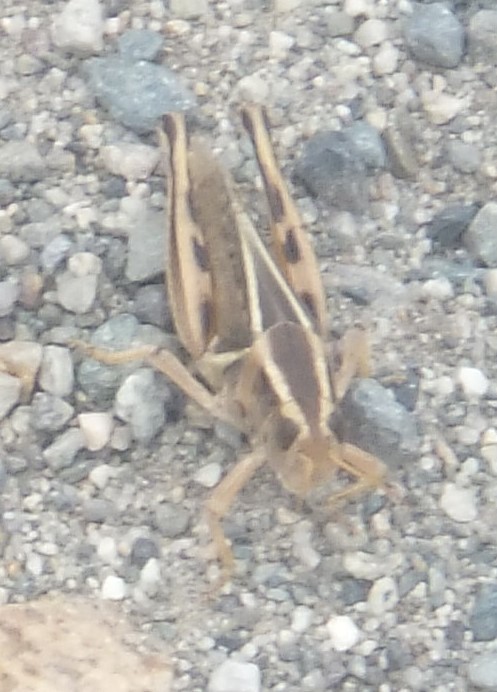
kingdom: Animalia
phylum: Arthropoda
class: Insecta
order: Orthoptera
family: Acrididae
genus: Melanoplus
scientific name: Melanoplus bivittatus
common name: Two-striped grasshopper
